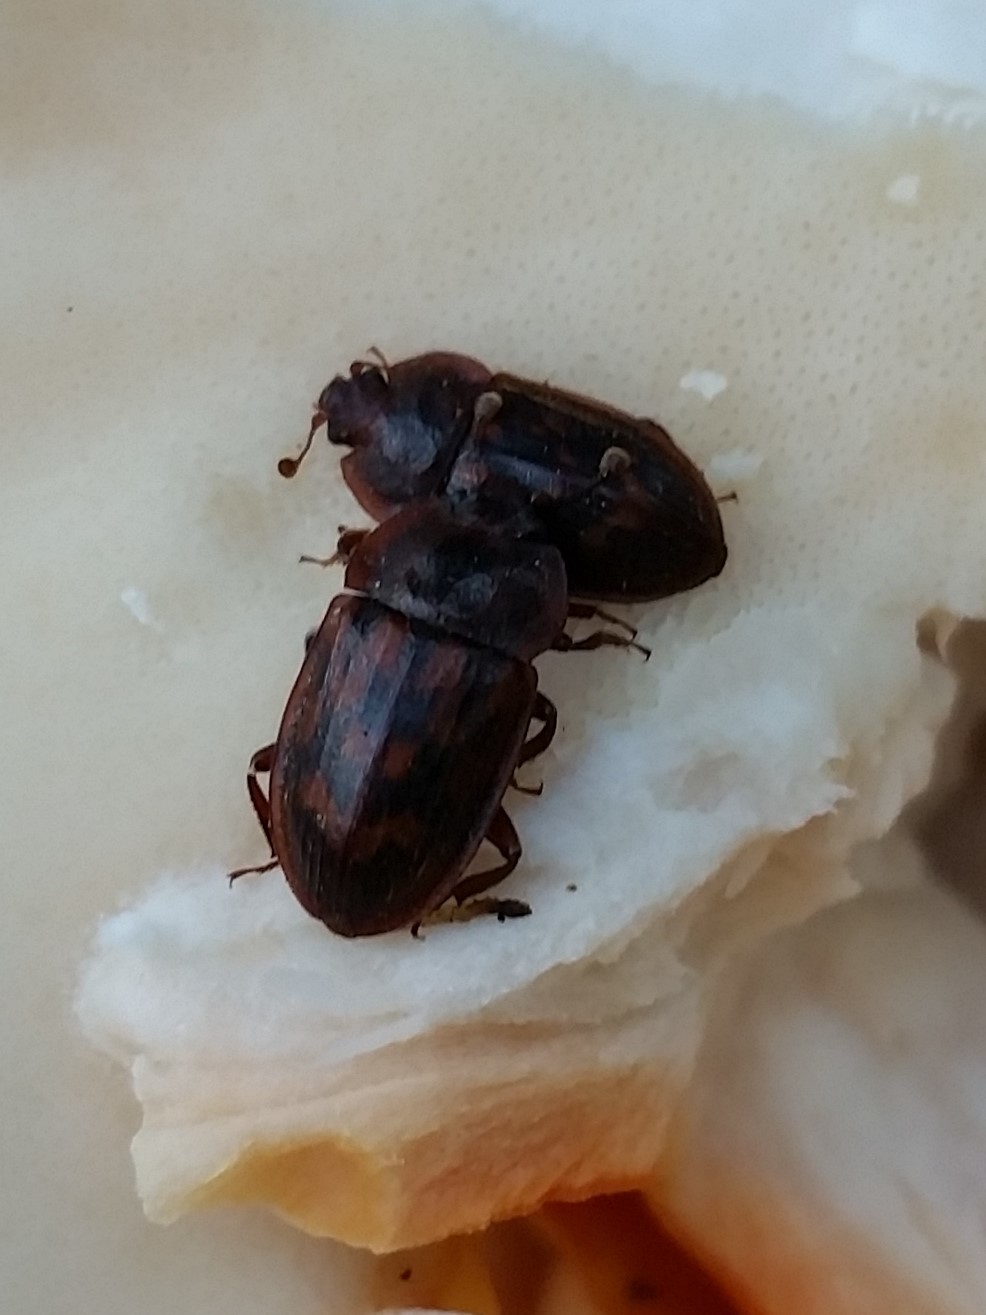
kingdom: Animalia
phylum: Arthropoda
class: Insecta
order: Coleoptera
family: Nitidulidae
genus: Phenolia
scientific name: Phenolia grossa
